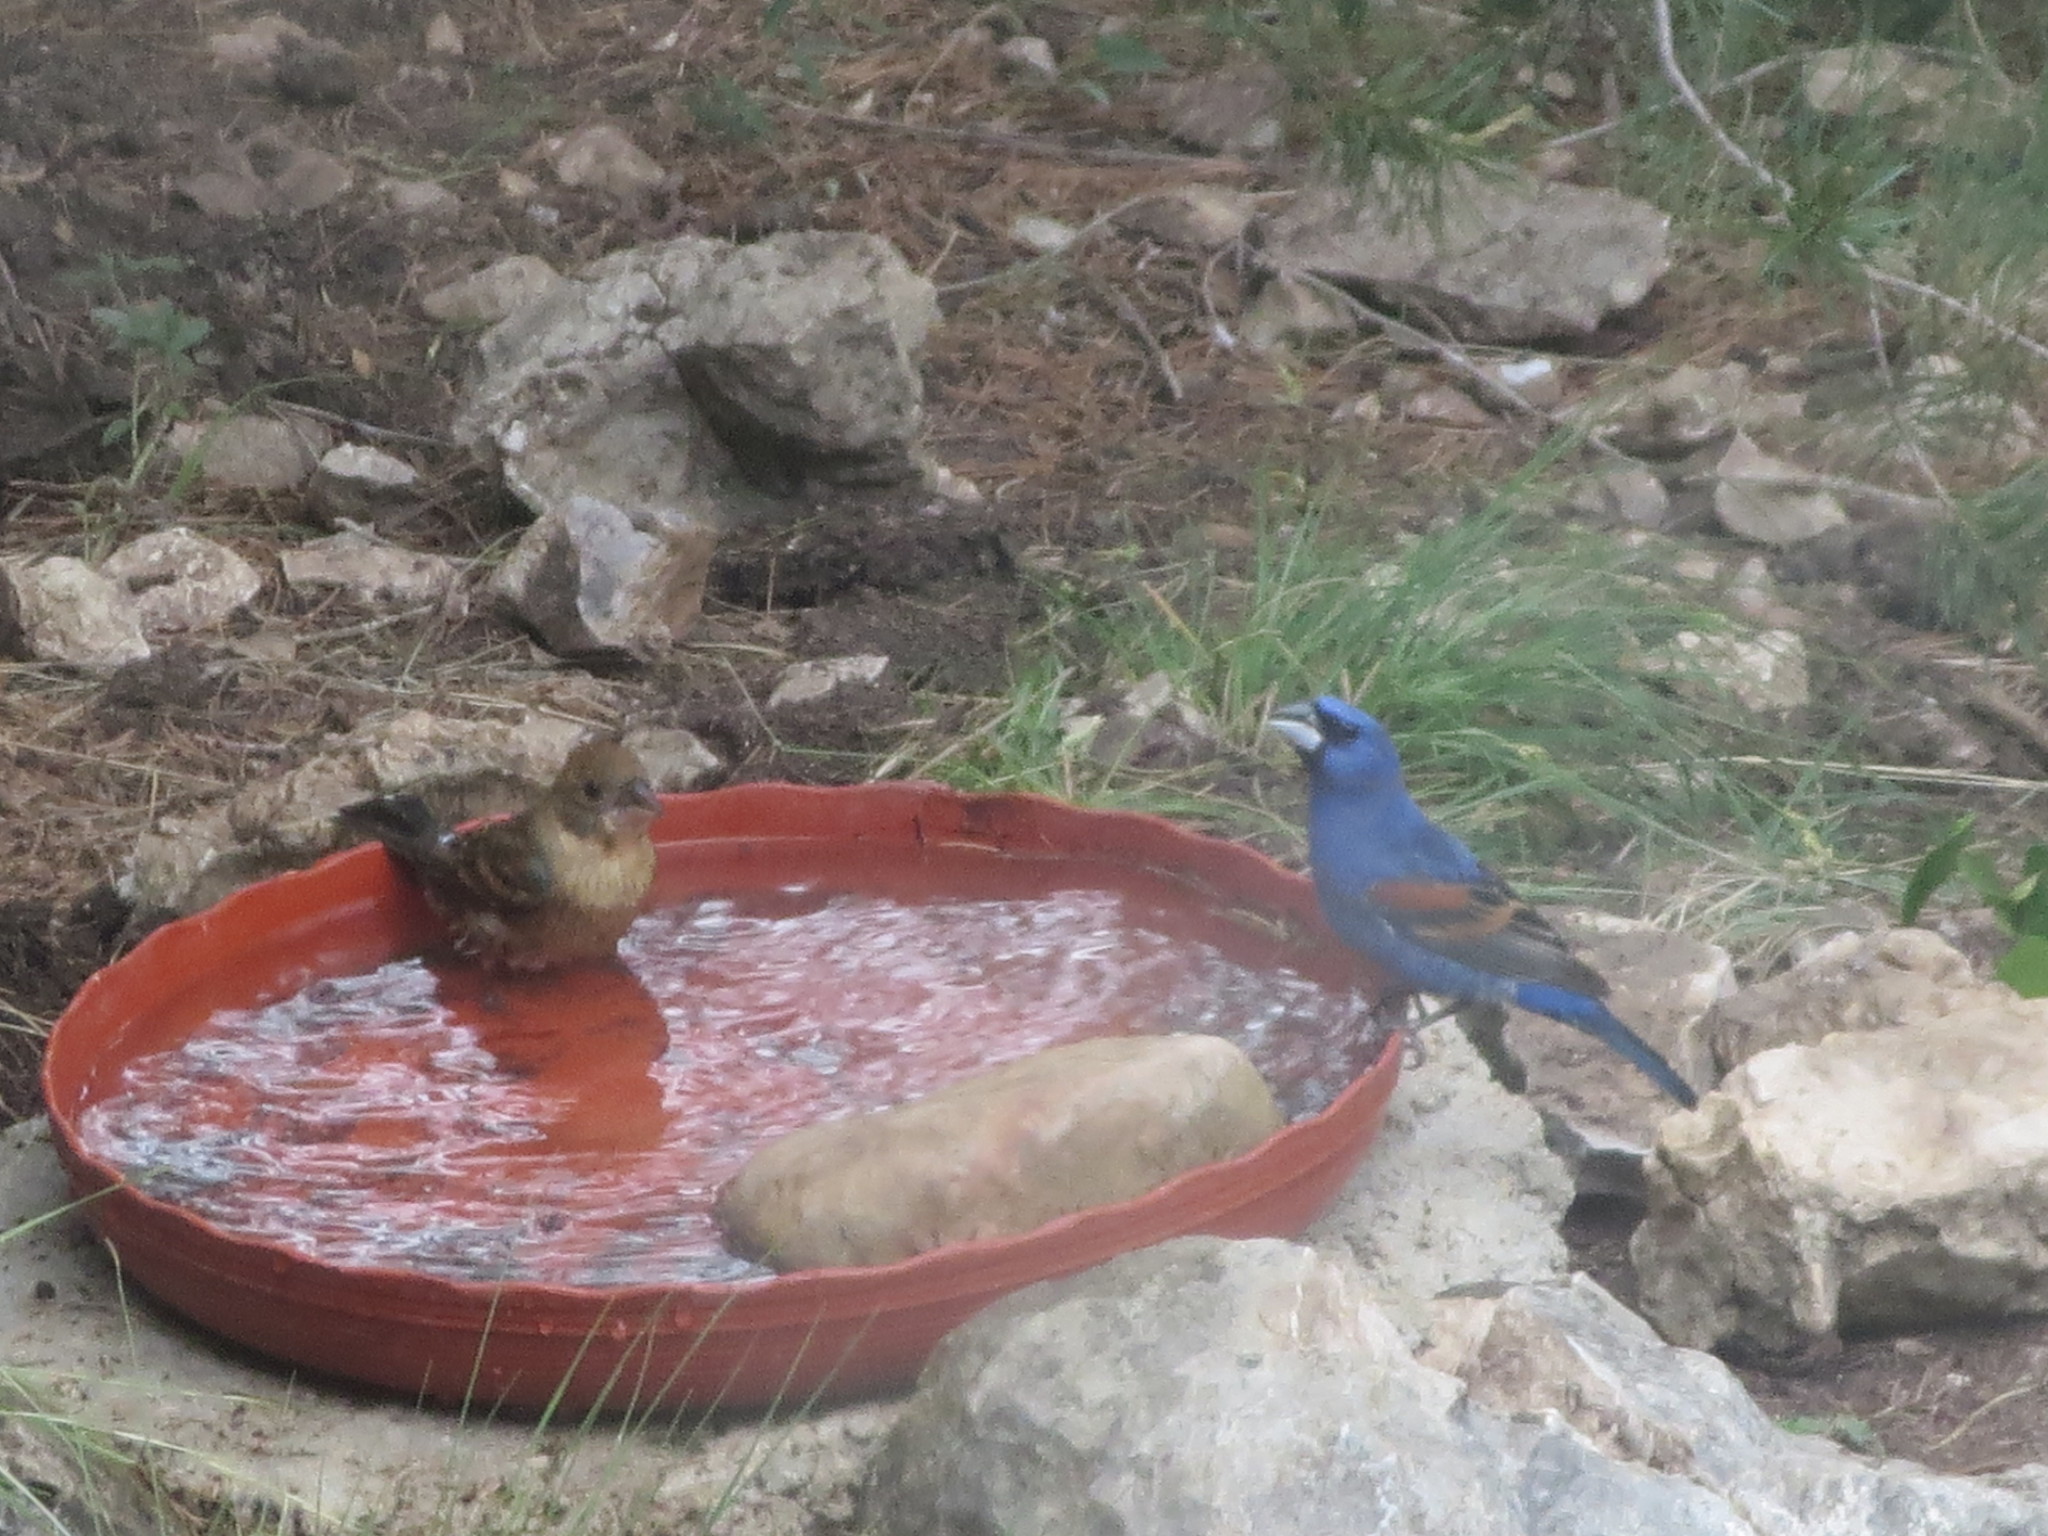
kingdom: Animalia
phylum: Chordata
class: Aves
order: Passeriformes
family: Cardinalidae
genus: Passerina
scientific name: Passerina caerulea
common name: Blue grosbeak
